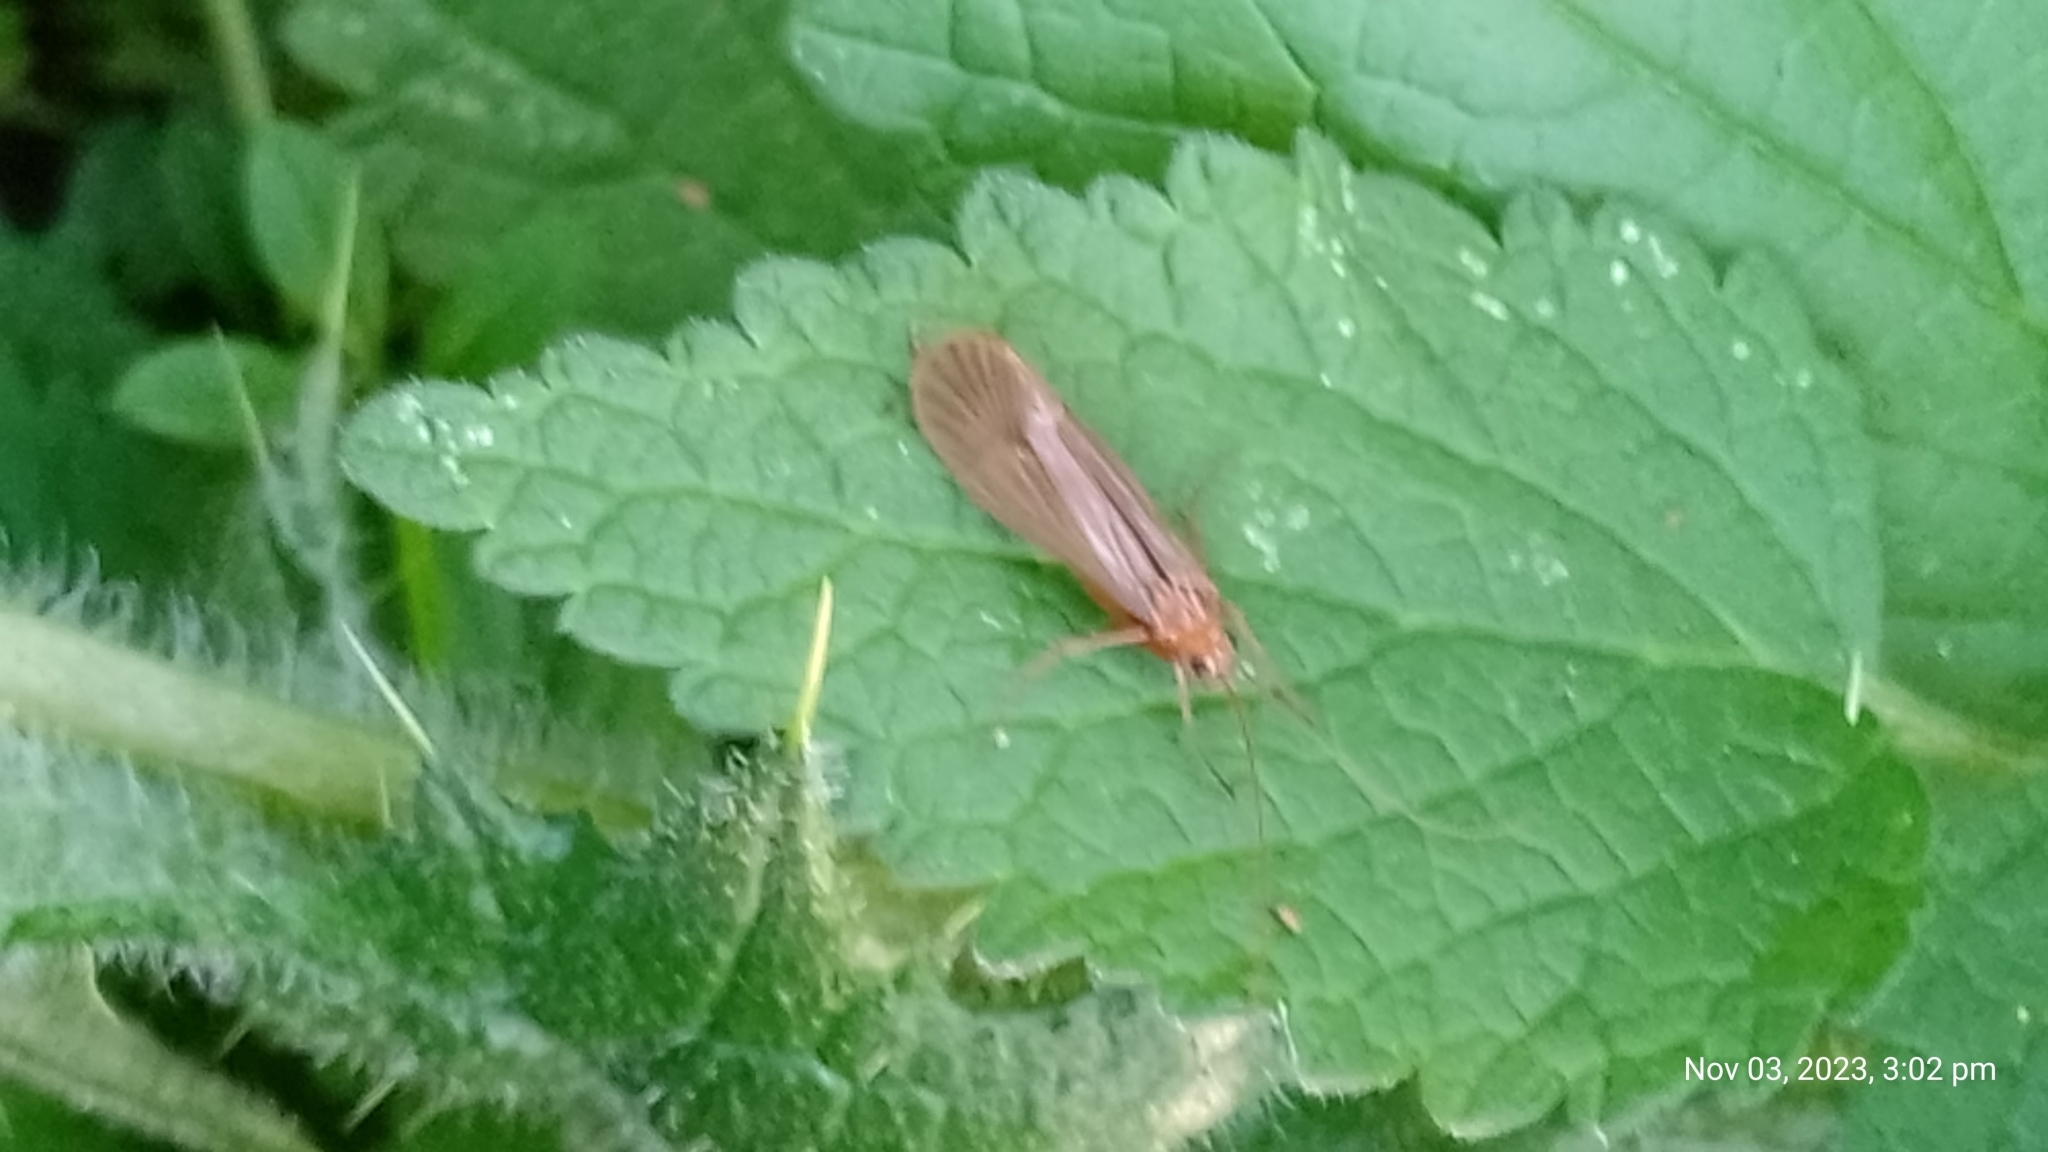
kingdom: Animalia
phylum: Arthropoda
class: Insecta
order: Trichoptera
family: Limnephilidae
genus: Chaetopteryx
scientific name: Chaetopteryx villosa
